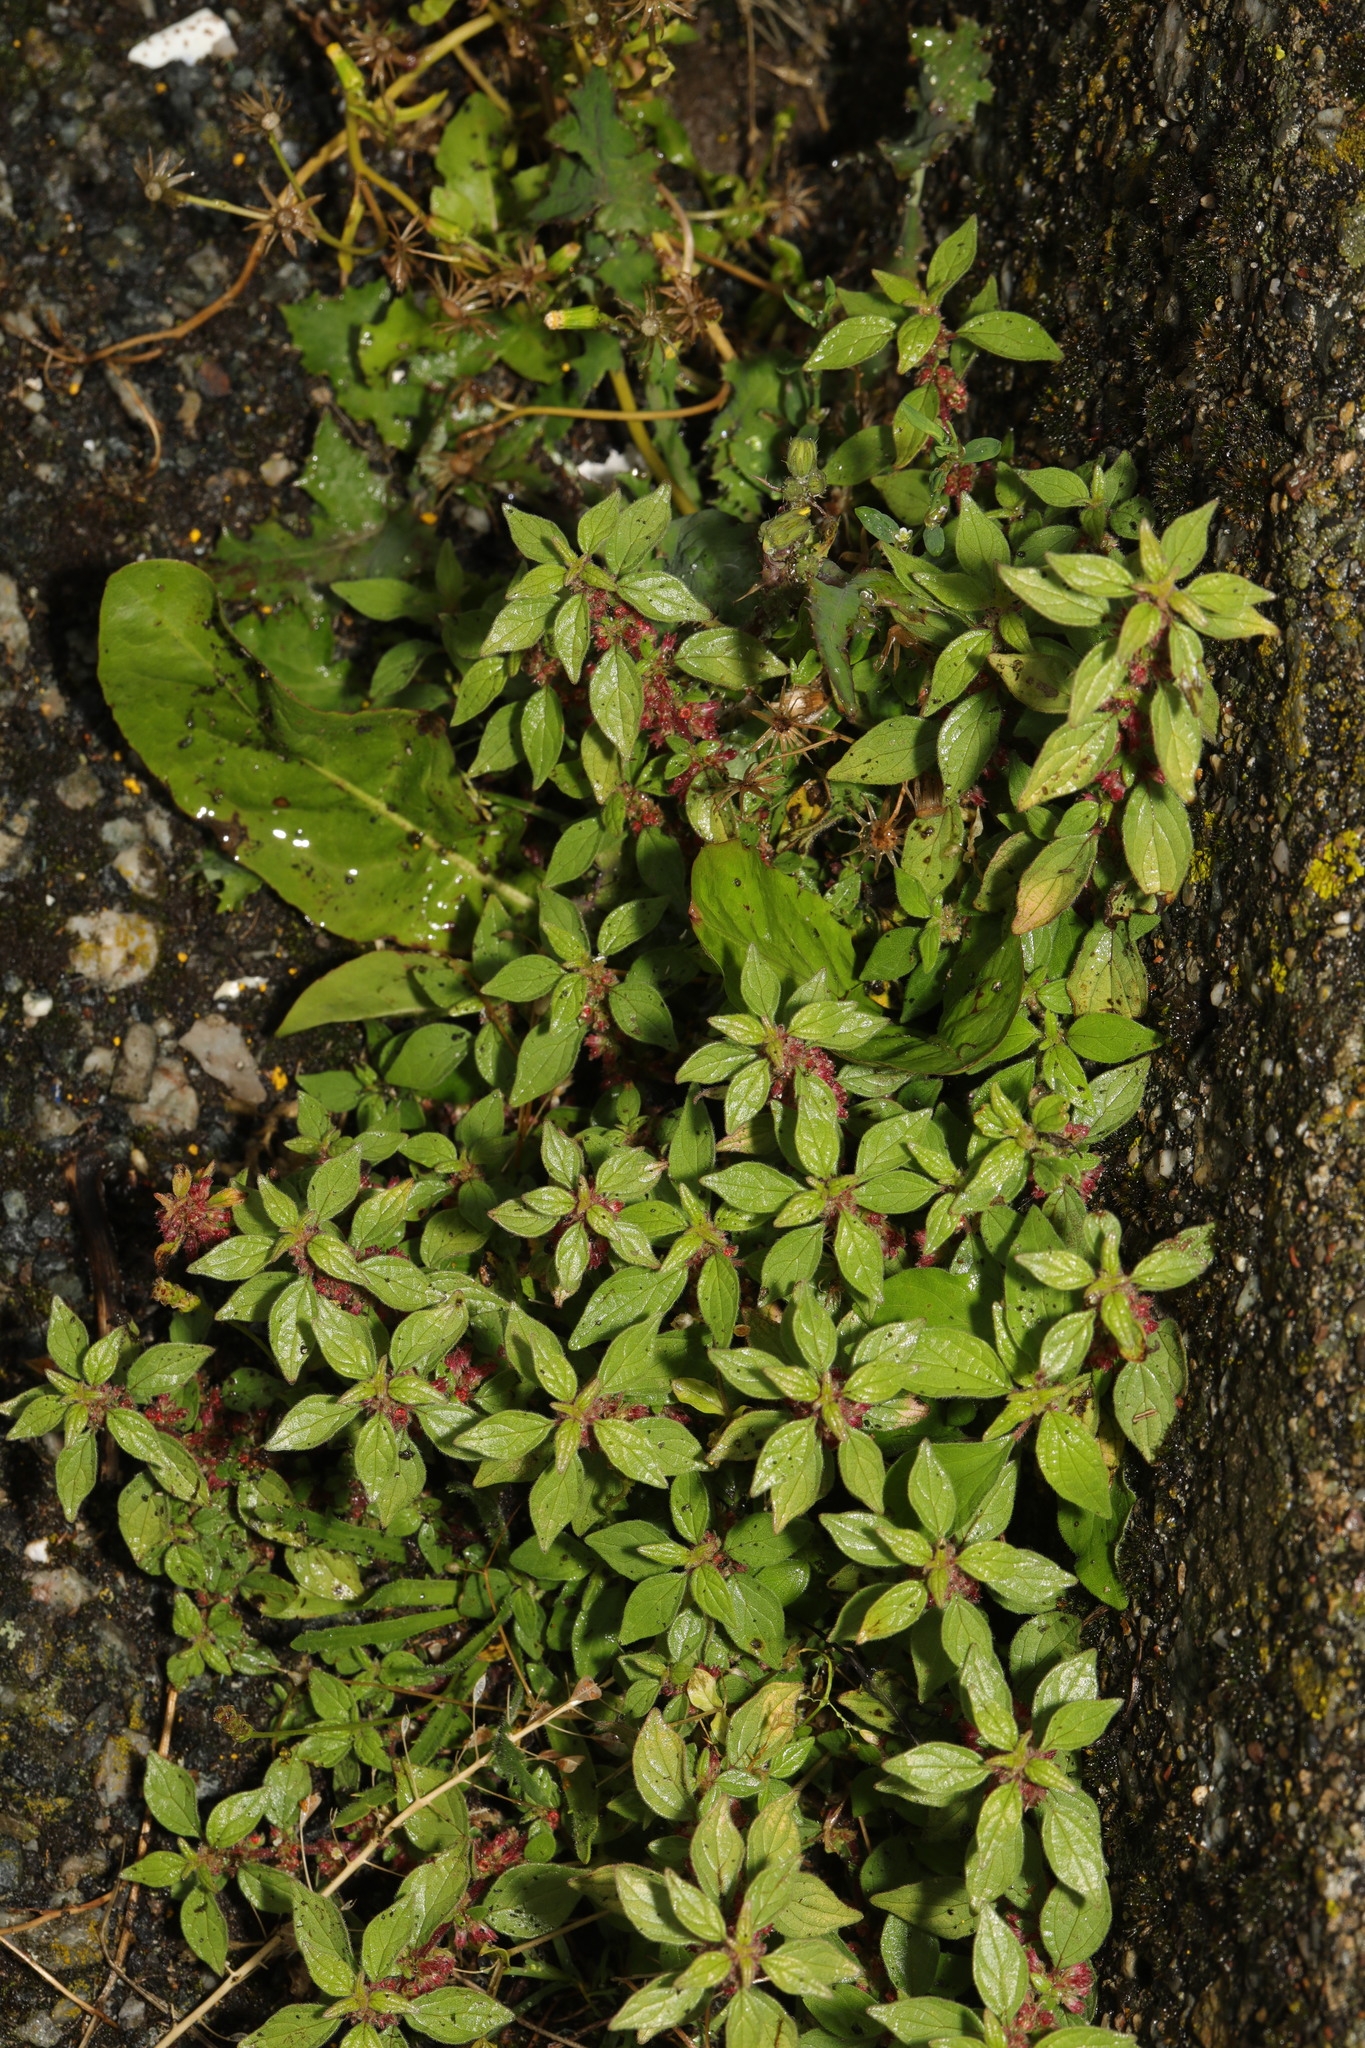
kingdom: Plantae
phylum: Tracheophyta
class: Magnoliopsida
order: Rosales
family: Urticaceae
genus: Parietaria
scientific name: Parietaria judaica
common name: Pellitory-of-the-wall
